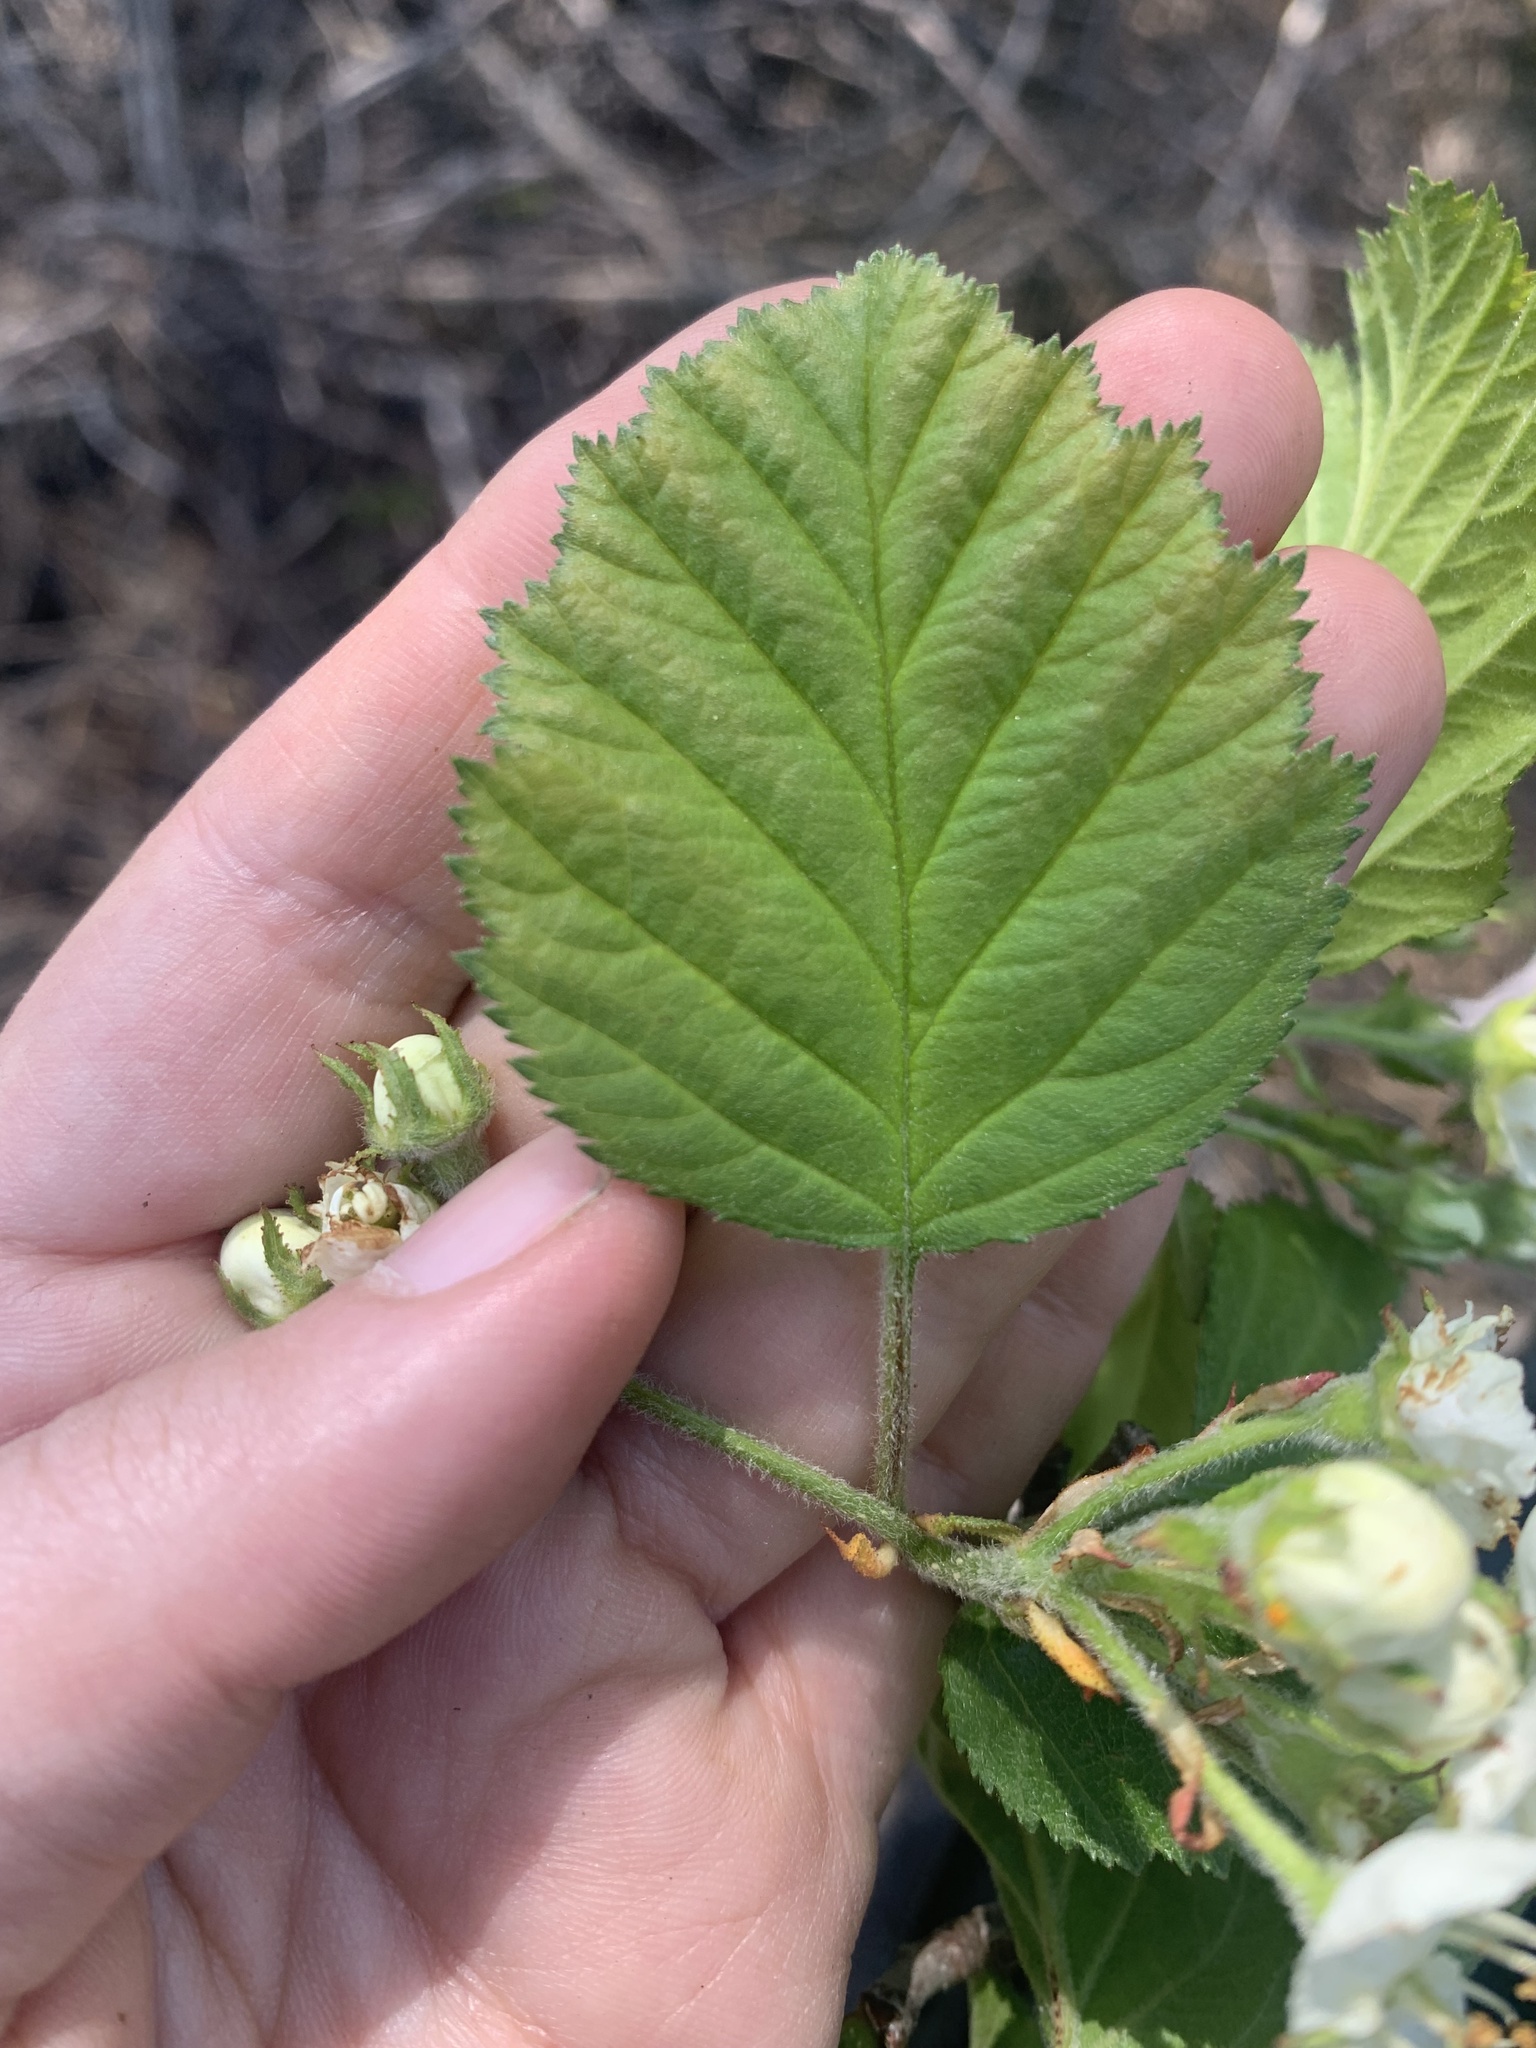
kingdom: Plantae
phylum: Tracheophyta
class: Magnoliopsida
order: Rosales
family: Rosaceae
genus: Crataegus
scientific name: Crataegus submollis
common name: Hairy cockspurthorn
